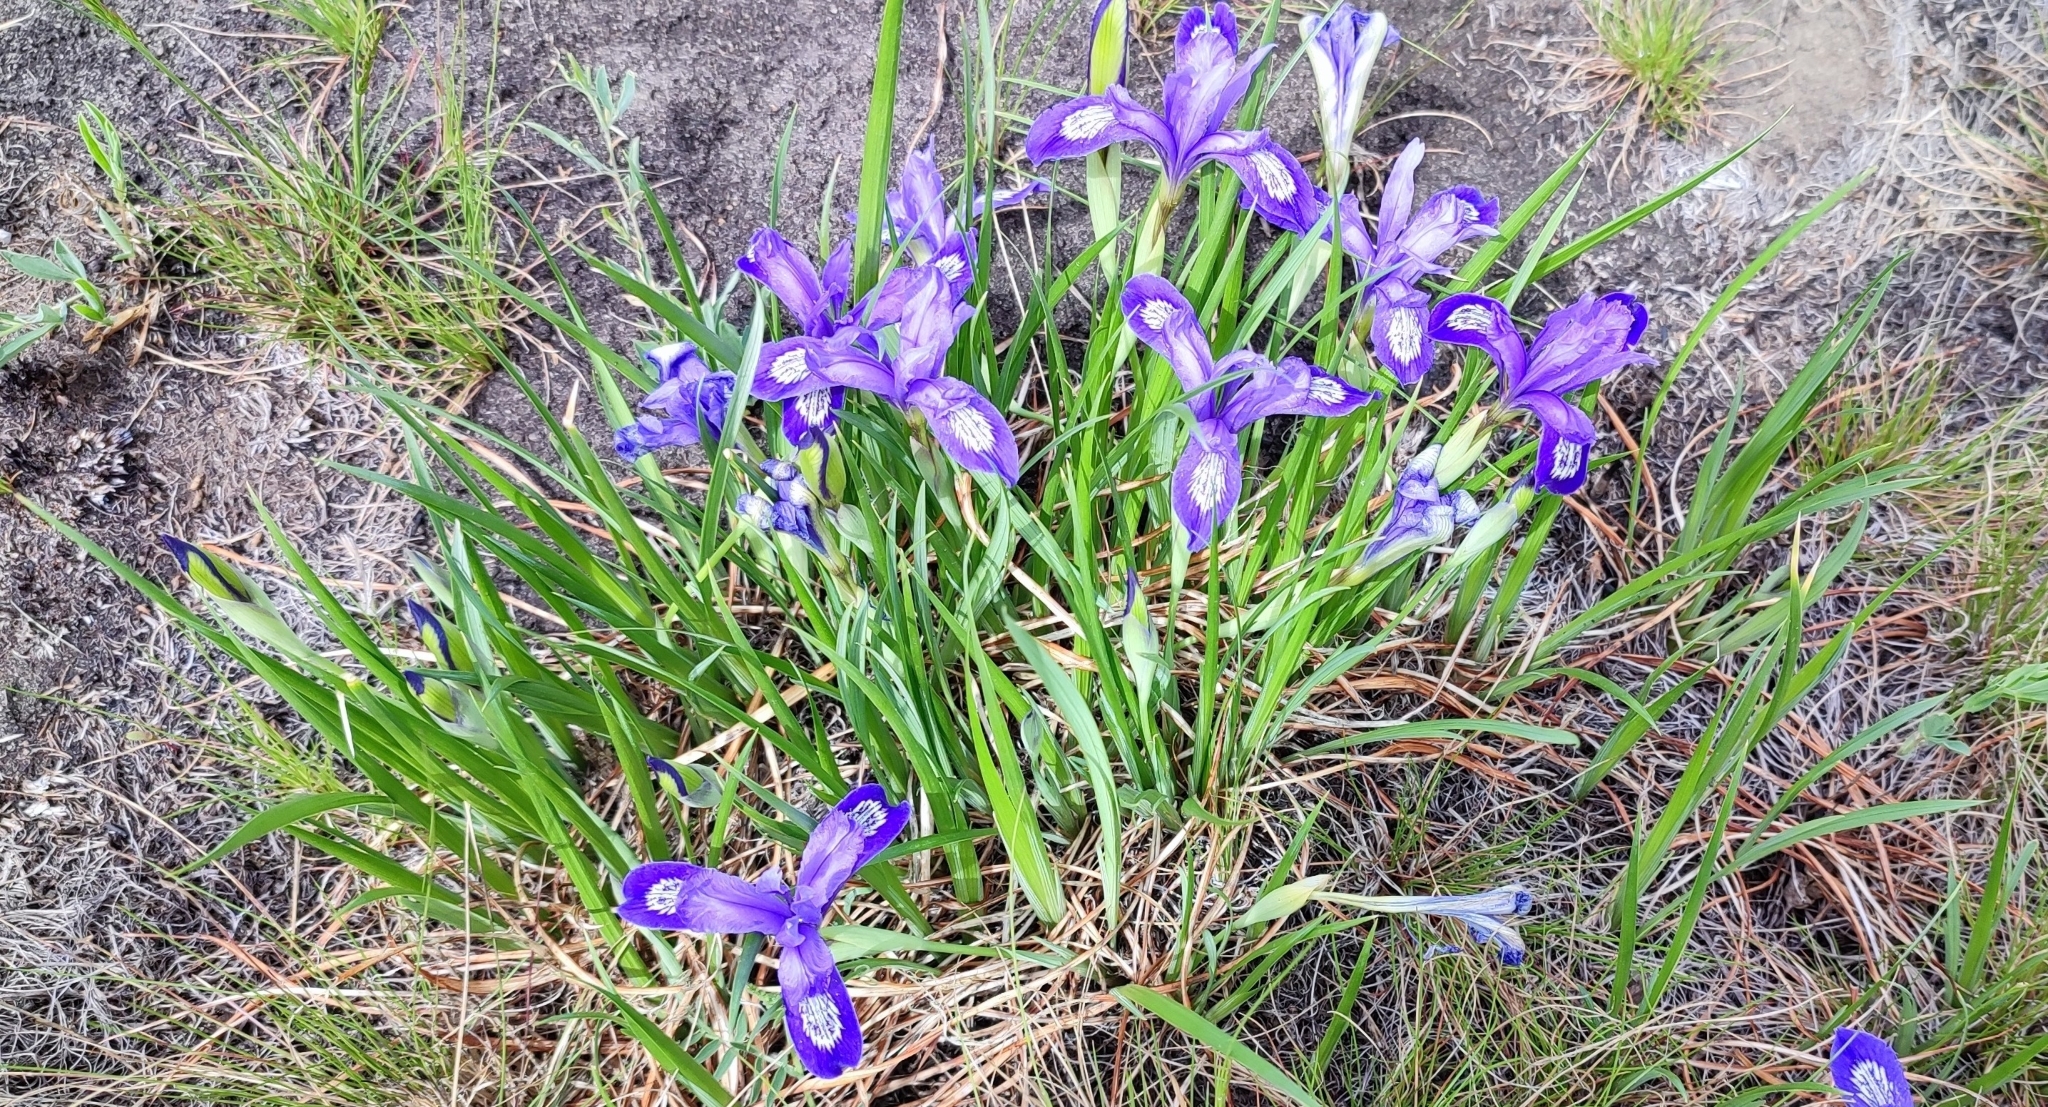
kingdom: Plantae
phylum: Tracheophyta
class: Liliopsida
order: Asparagales
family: Iridaceae
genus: Iris
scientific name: Iris ruthenica
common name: Purple-bract iris
